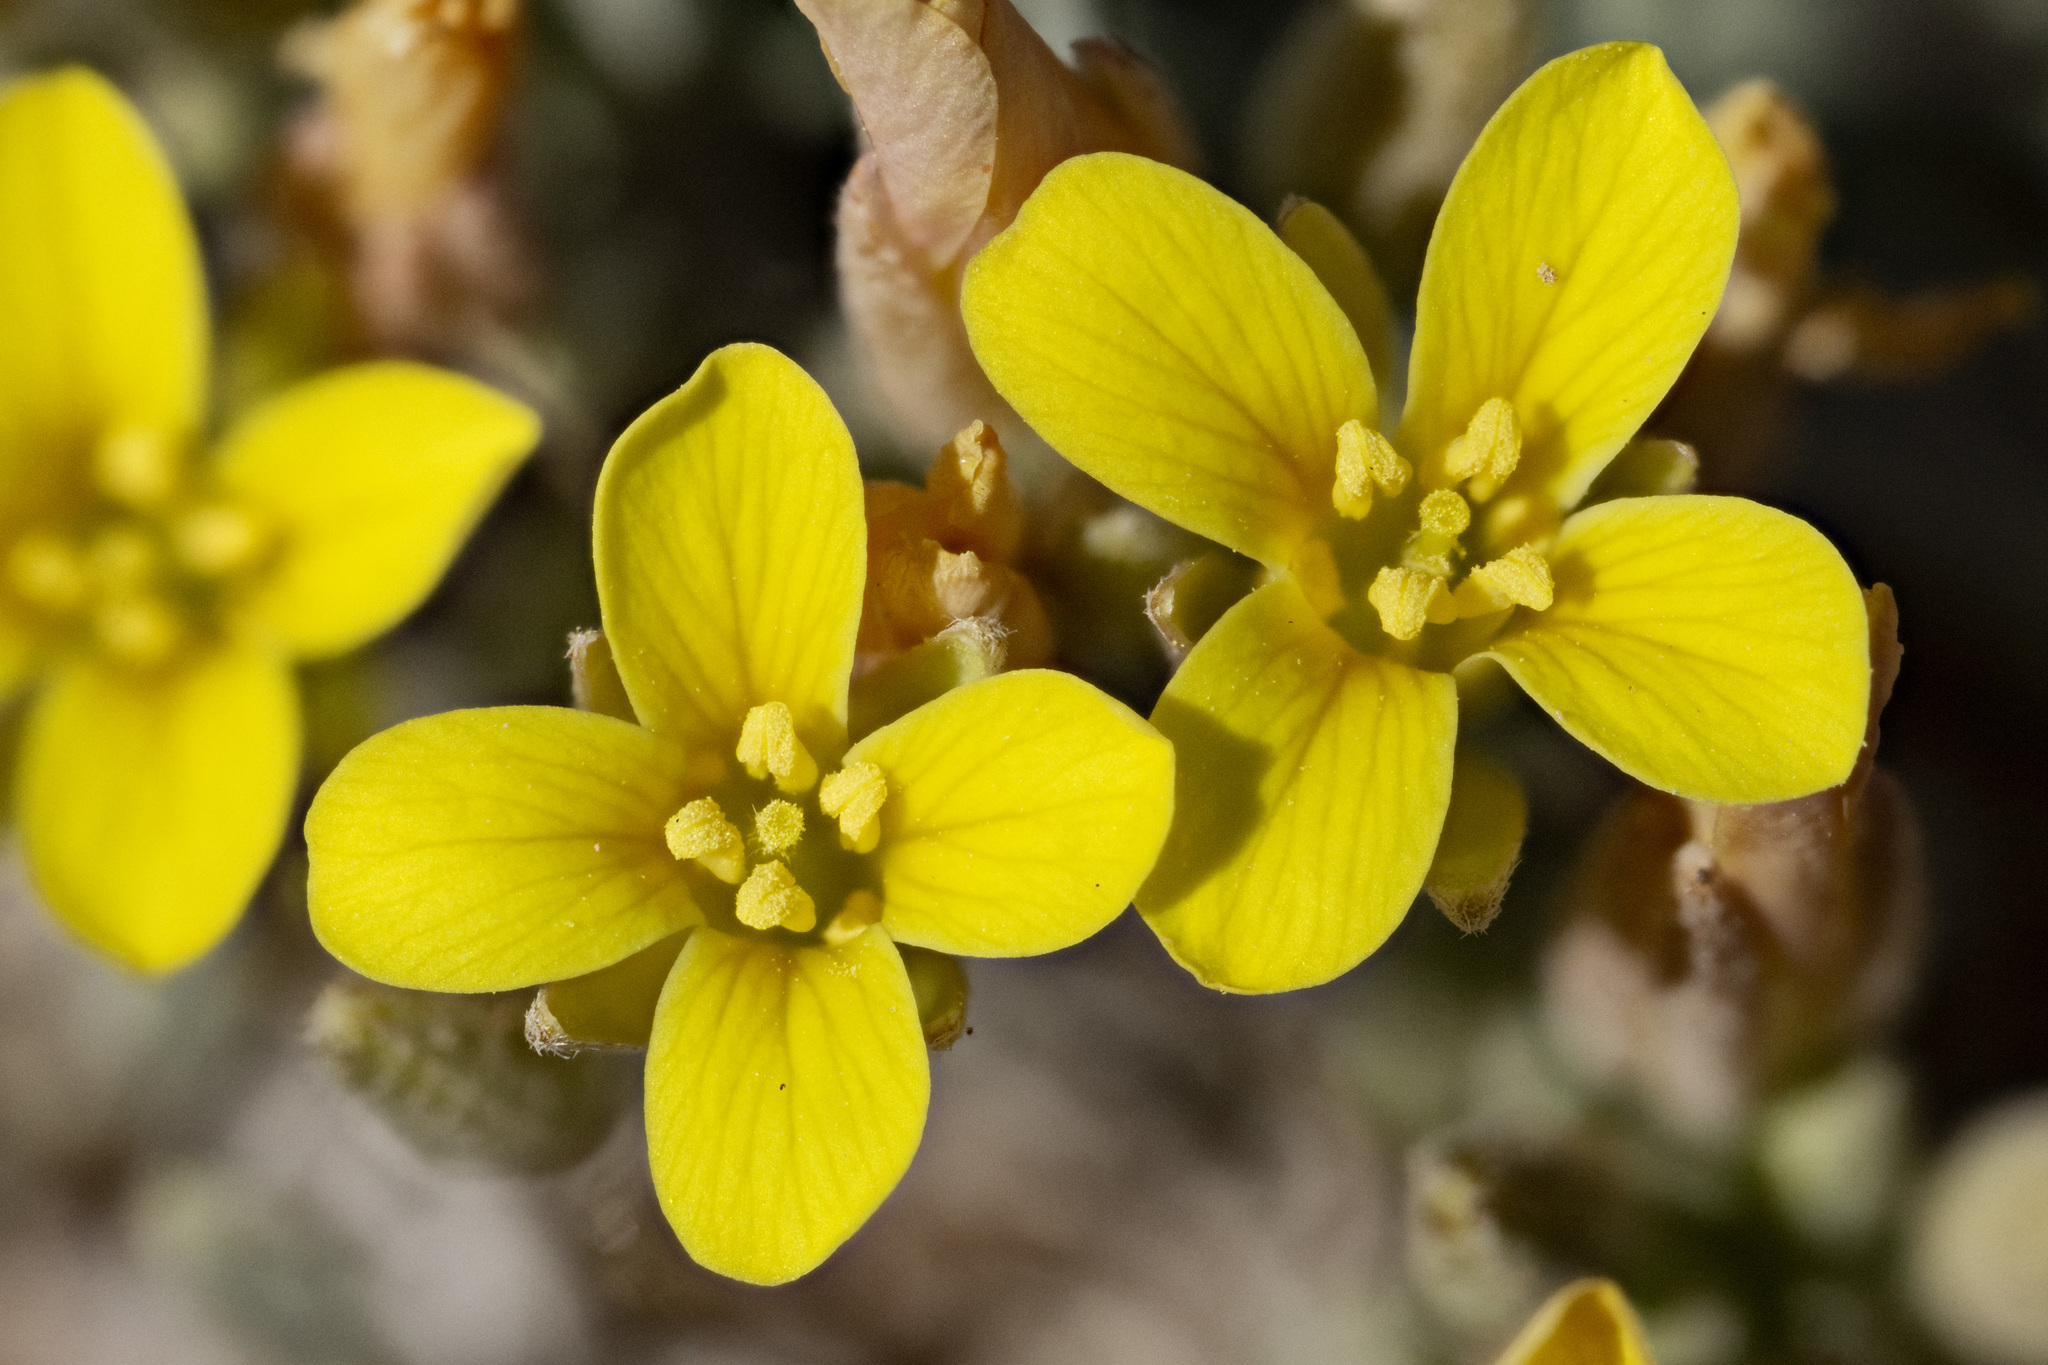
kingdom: Plantae
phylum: Tracheophyta
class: Magnoliopsida
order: Brassicales
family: Brassicaceae
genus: Physaria
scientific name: Physaria montana
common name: Mountain bladderpod
